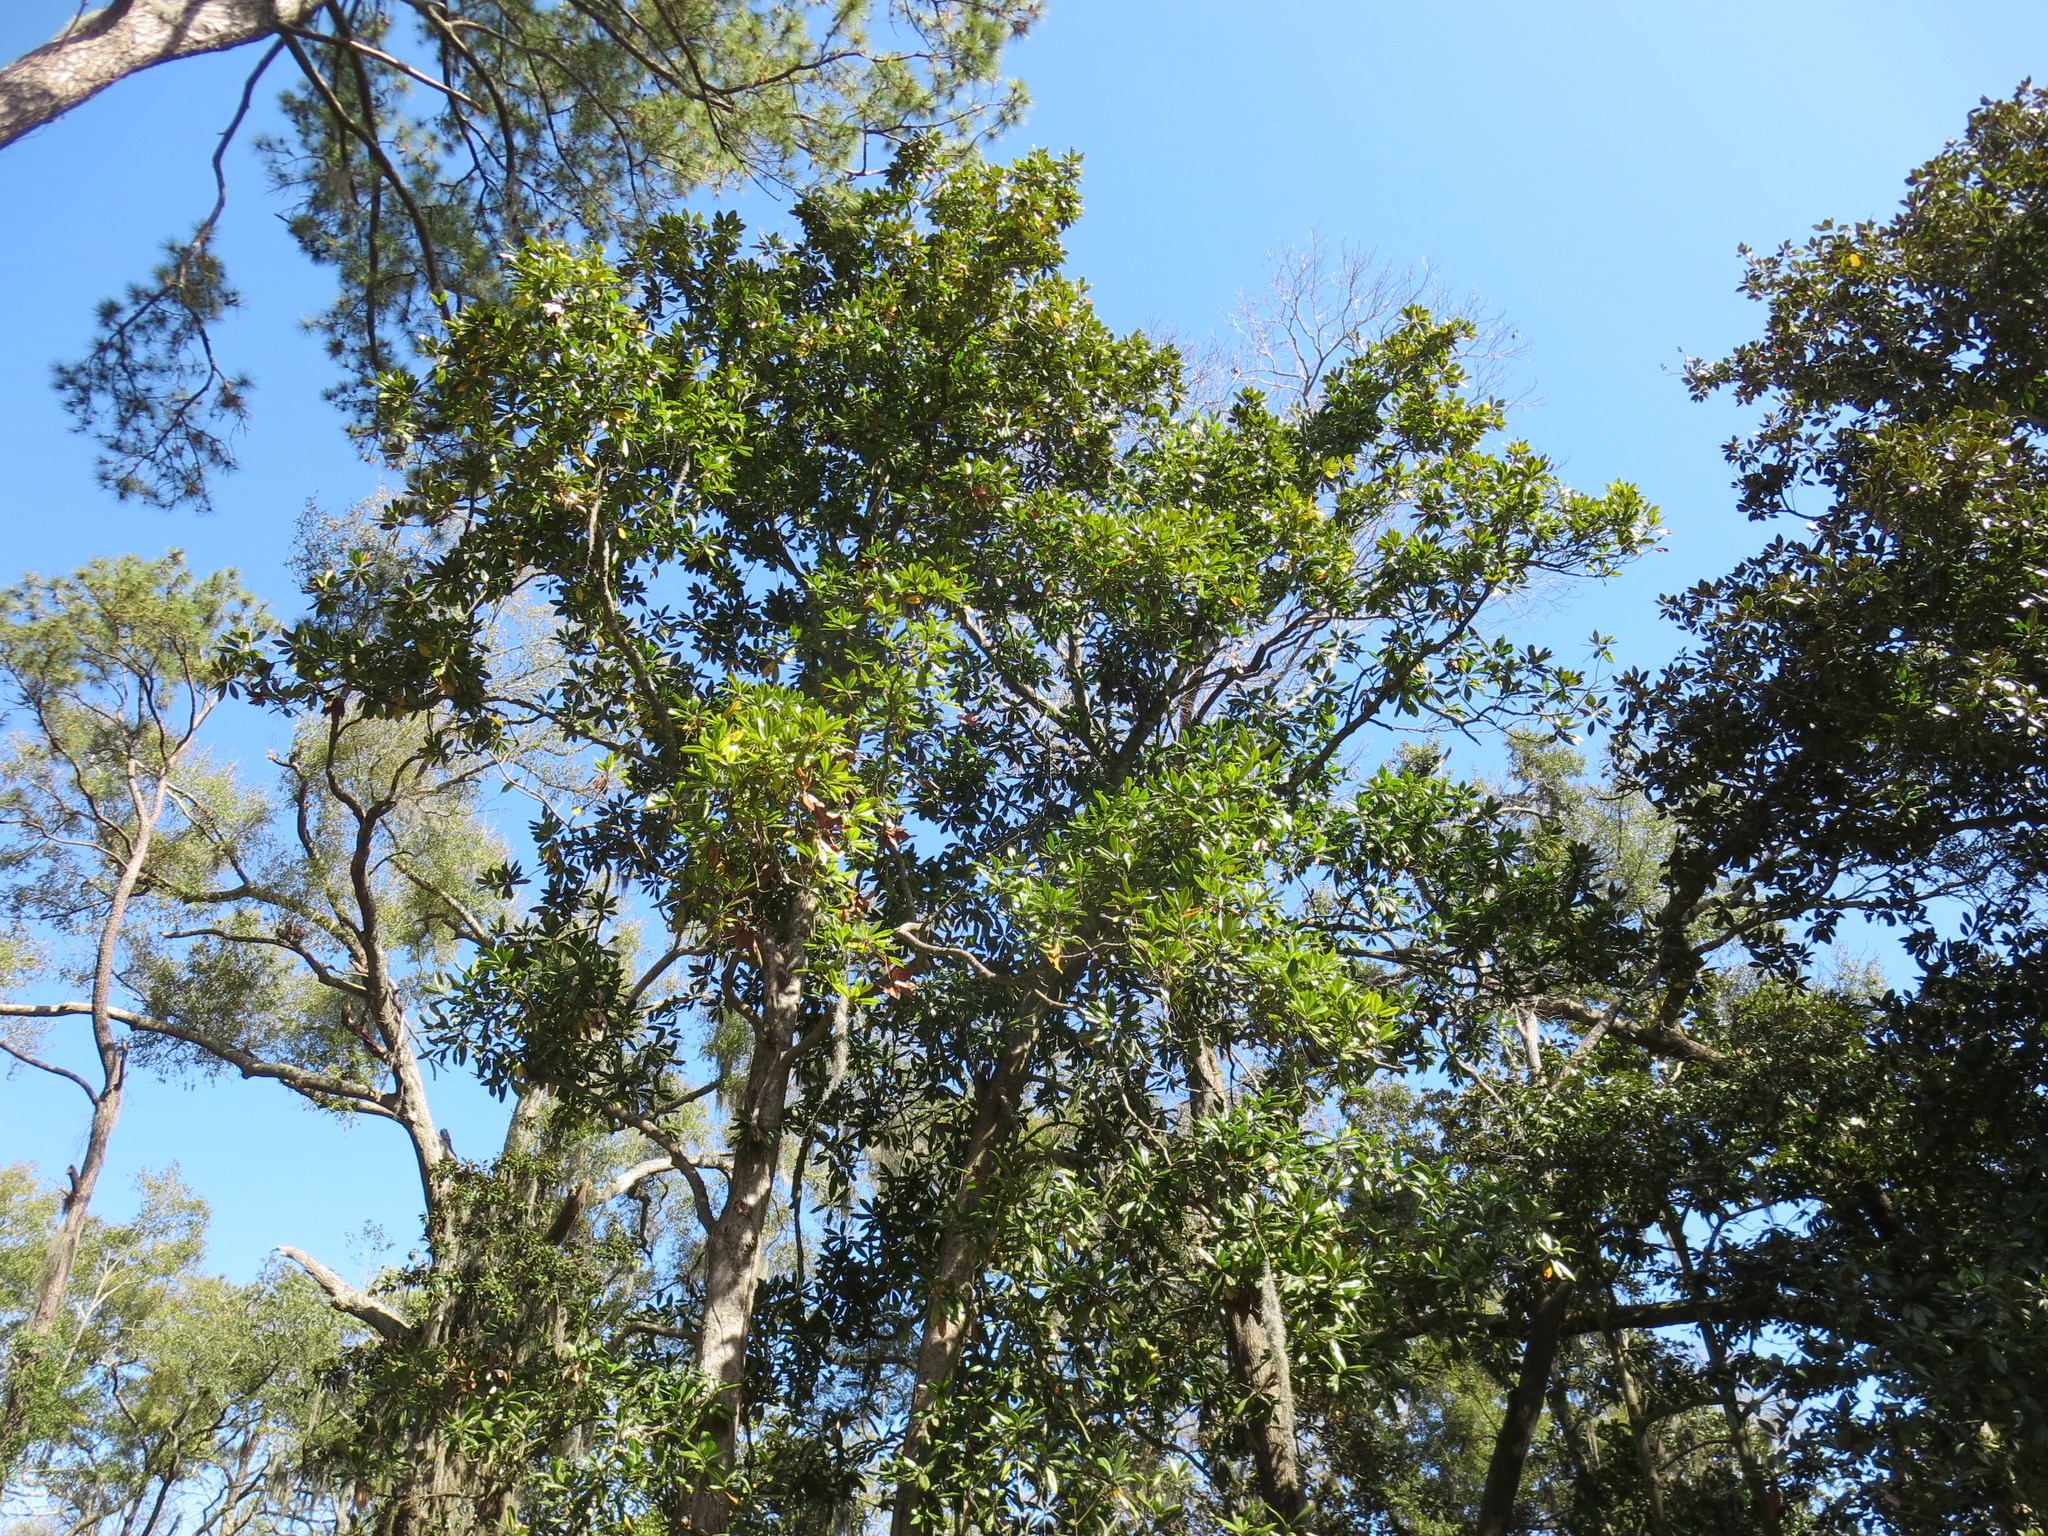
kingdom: Plantae
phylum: Tracheophyta
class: Magnoliopsida
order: Magnoliales
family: Magnoliaceae
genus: Magnolia
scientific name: Magnolia grandiflora
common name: Southern magnolia
